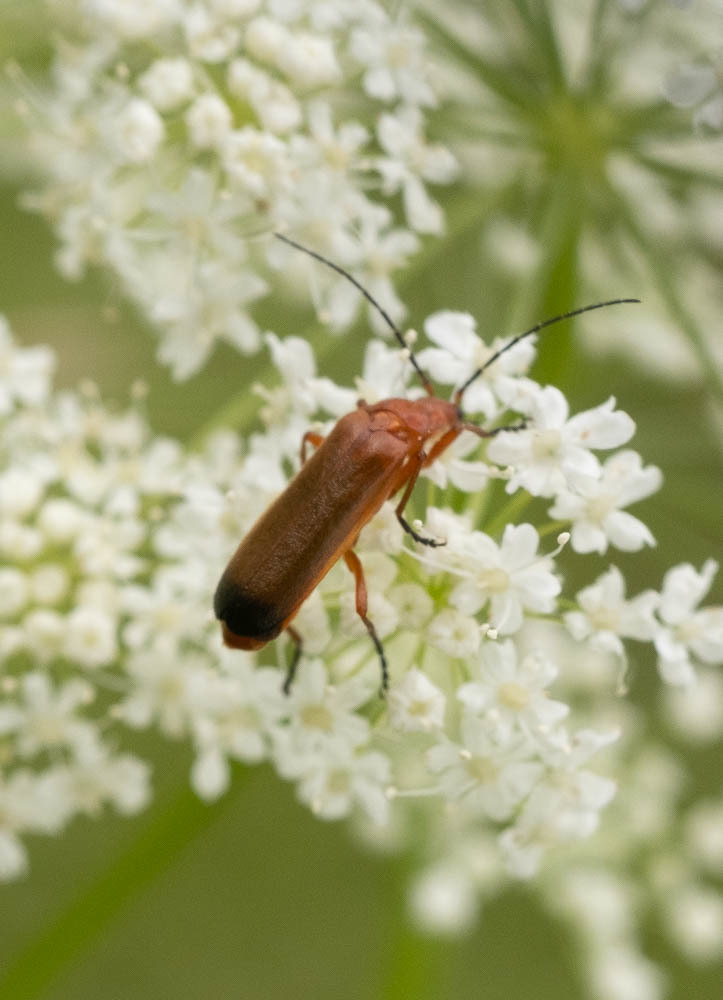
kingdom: Animalia
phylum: Arthropoda
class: Insecta
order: Coleoptera
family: Cantharidae
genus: Rhagonycha
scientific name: Rhagonycha fulva
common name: Common red soldier beetle
